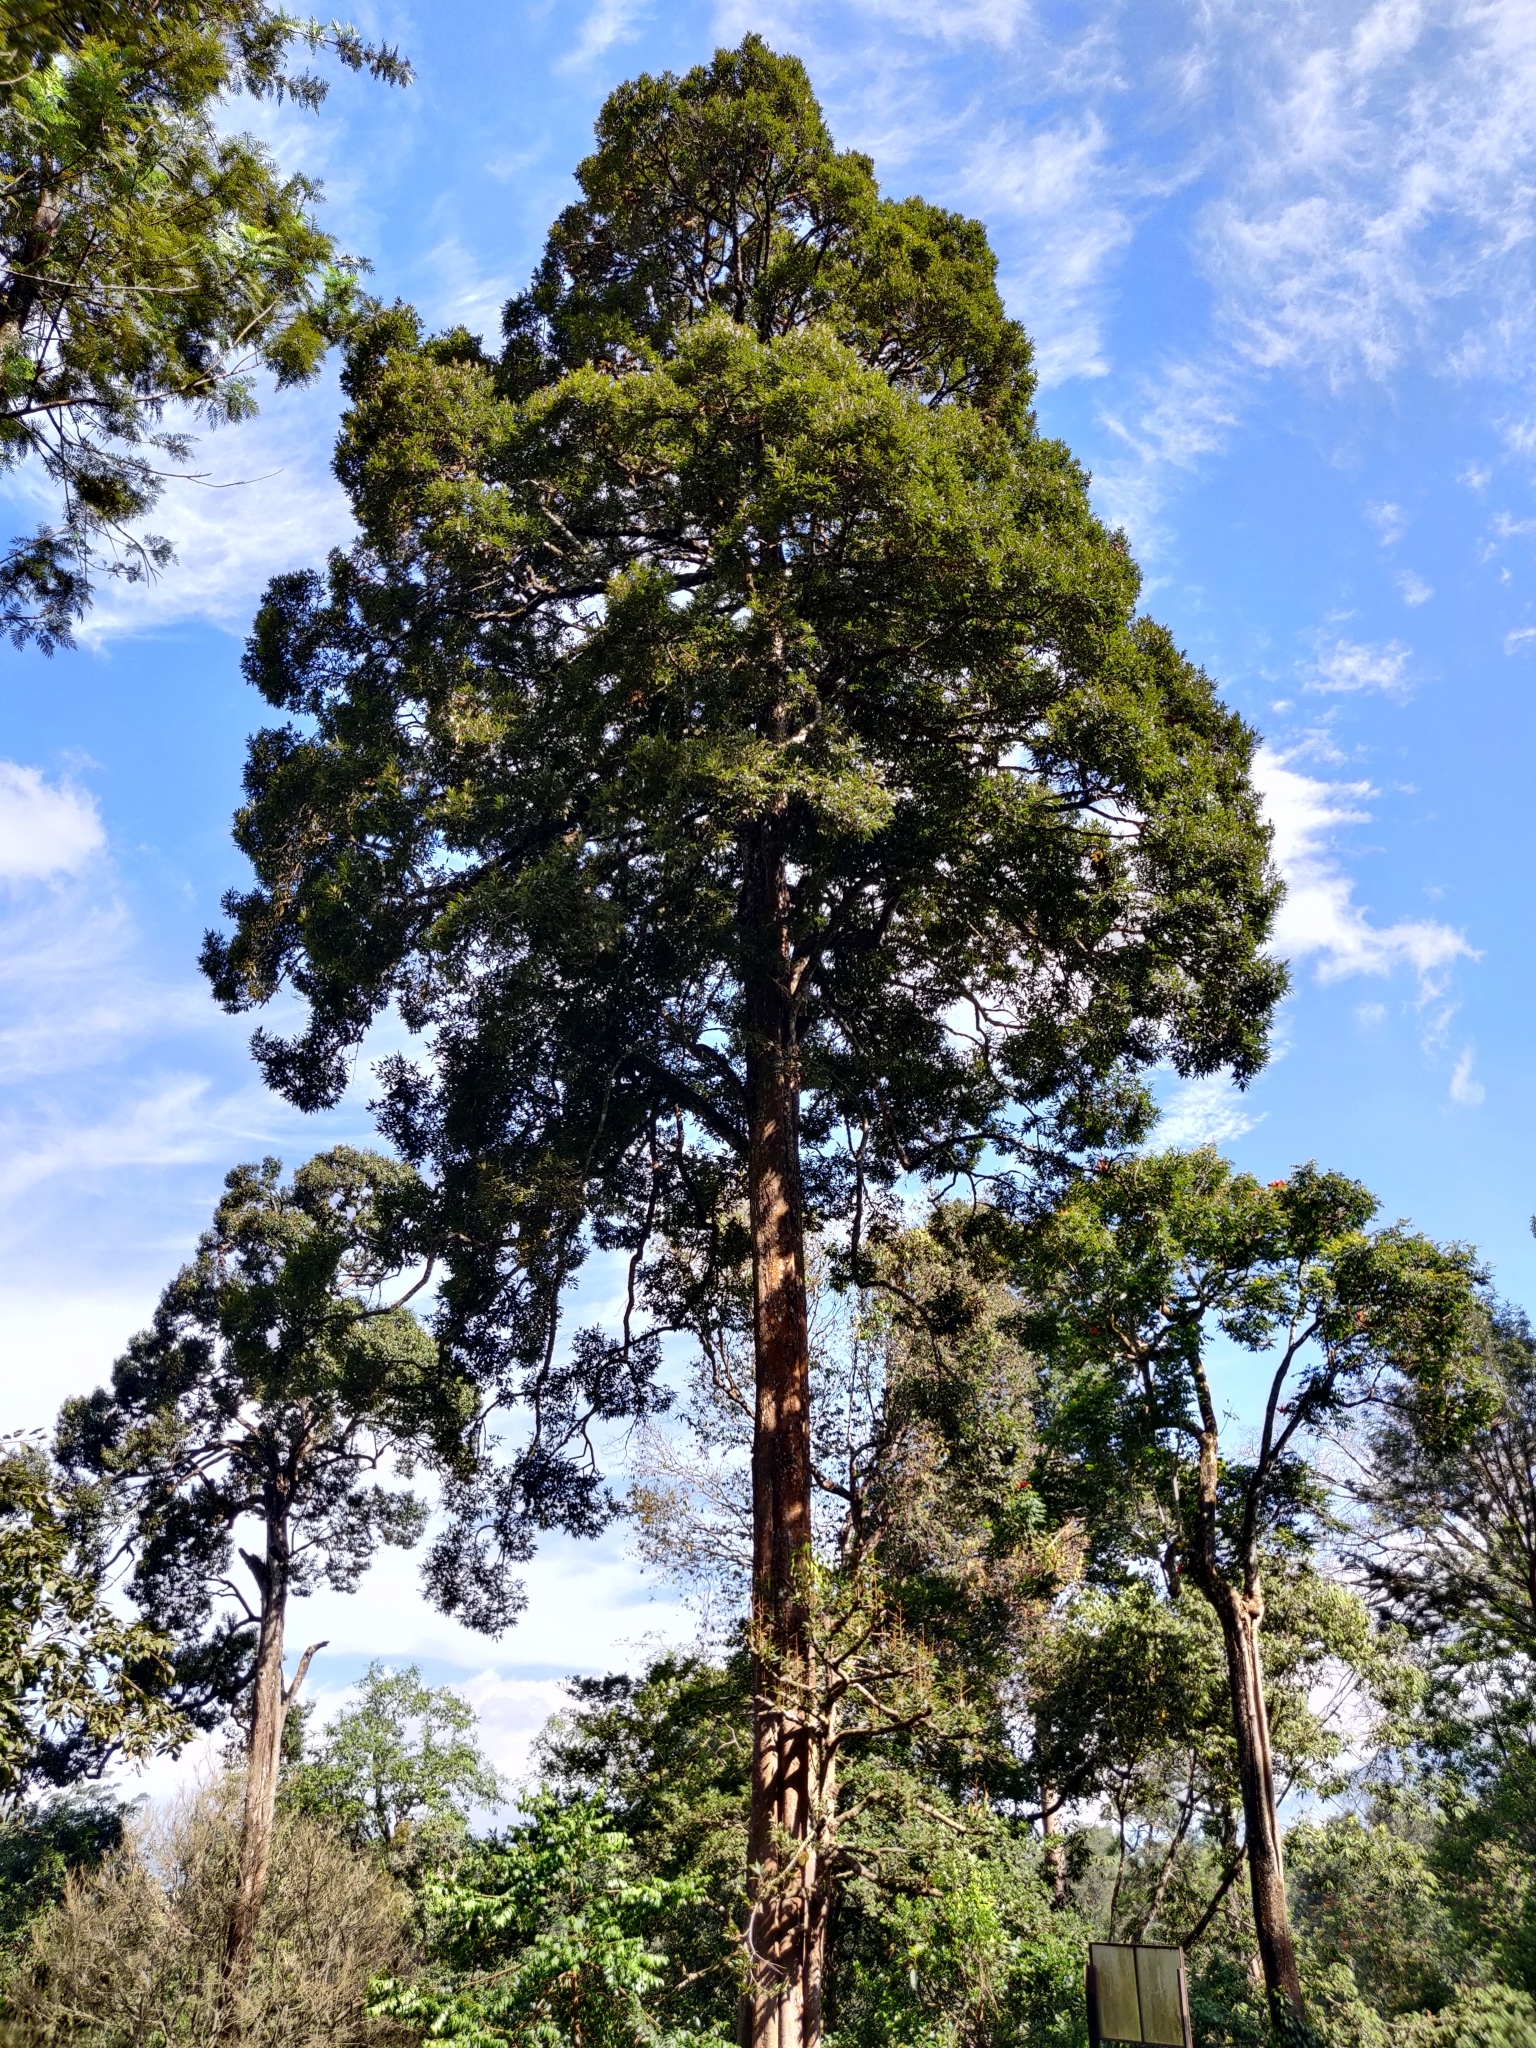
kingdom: Plantae
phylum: Tracheophyta
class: Magnoliopsida
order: Malvales
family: Malvaceae
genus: Cullenia
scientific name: Cullenia exarillata
